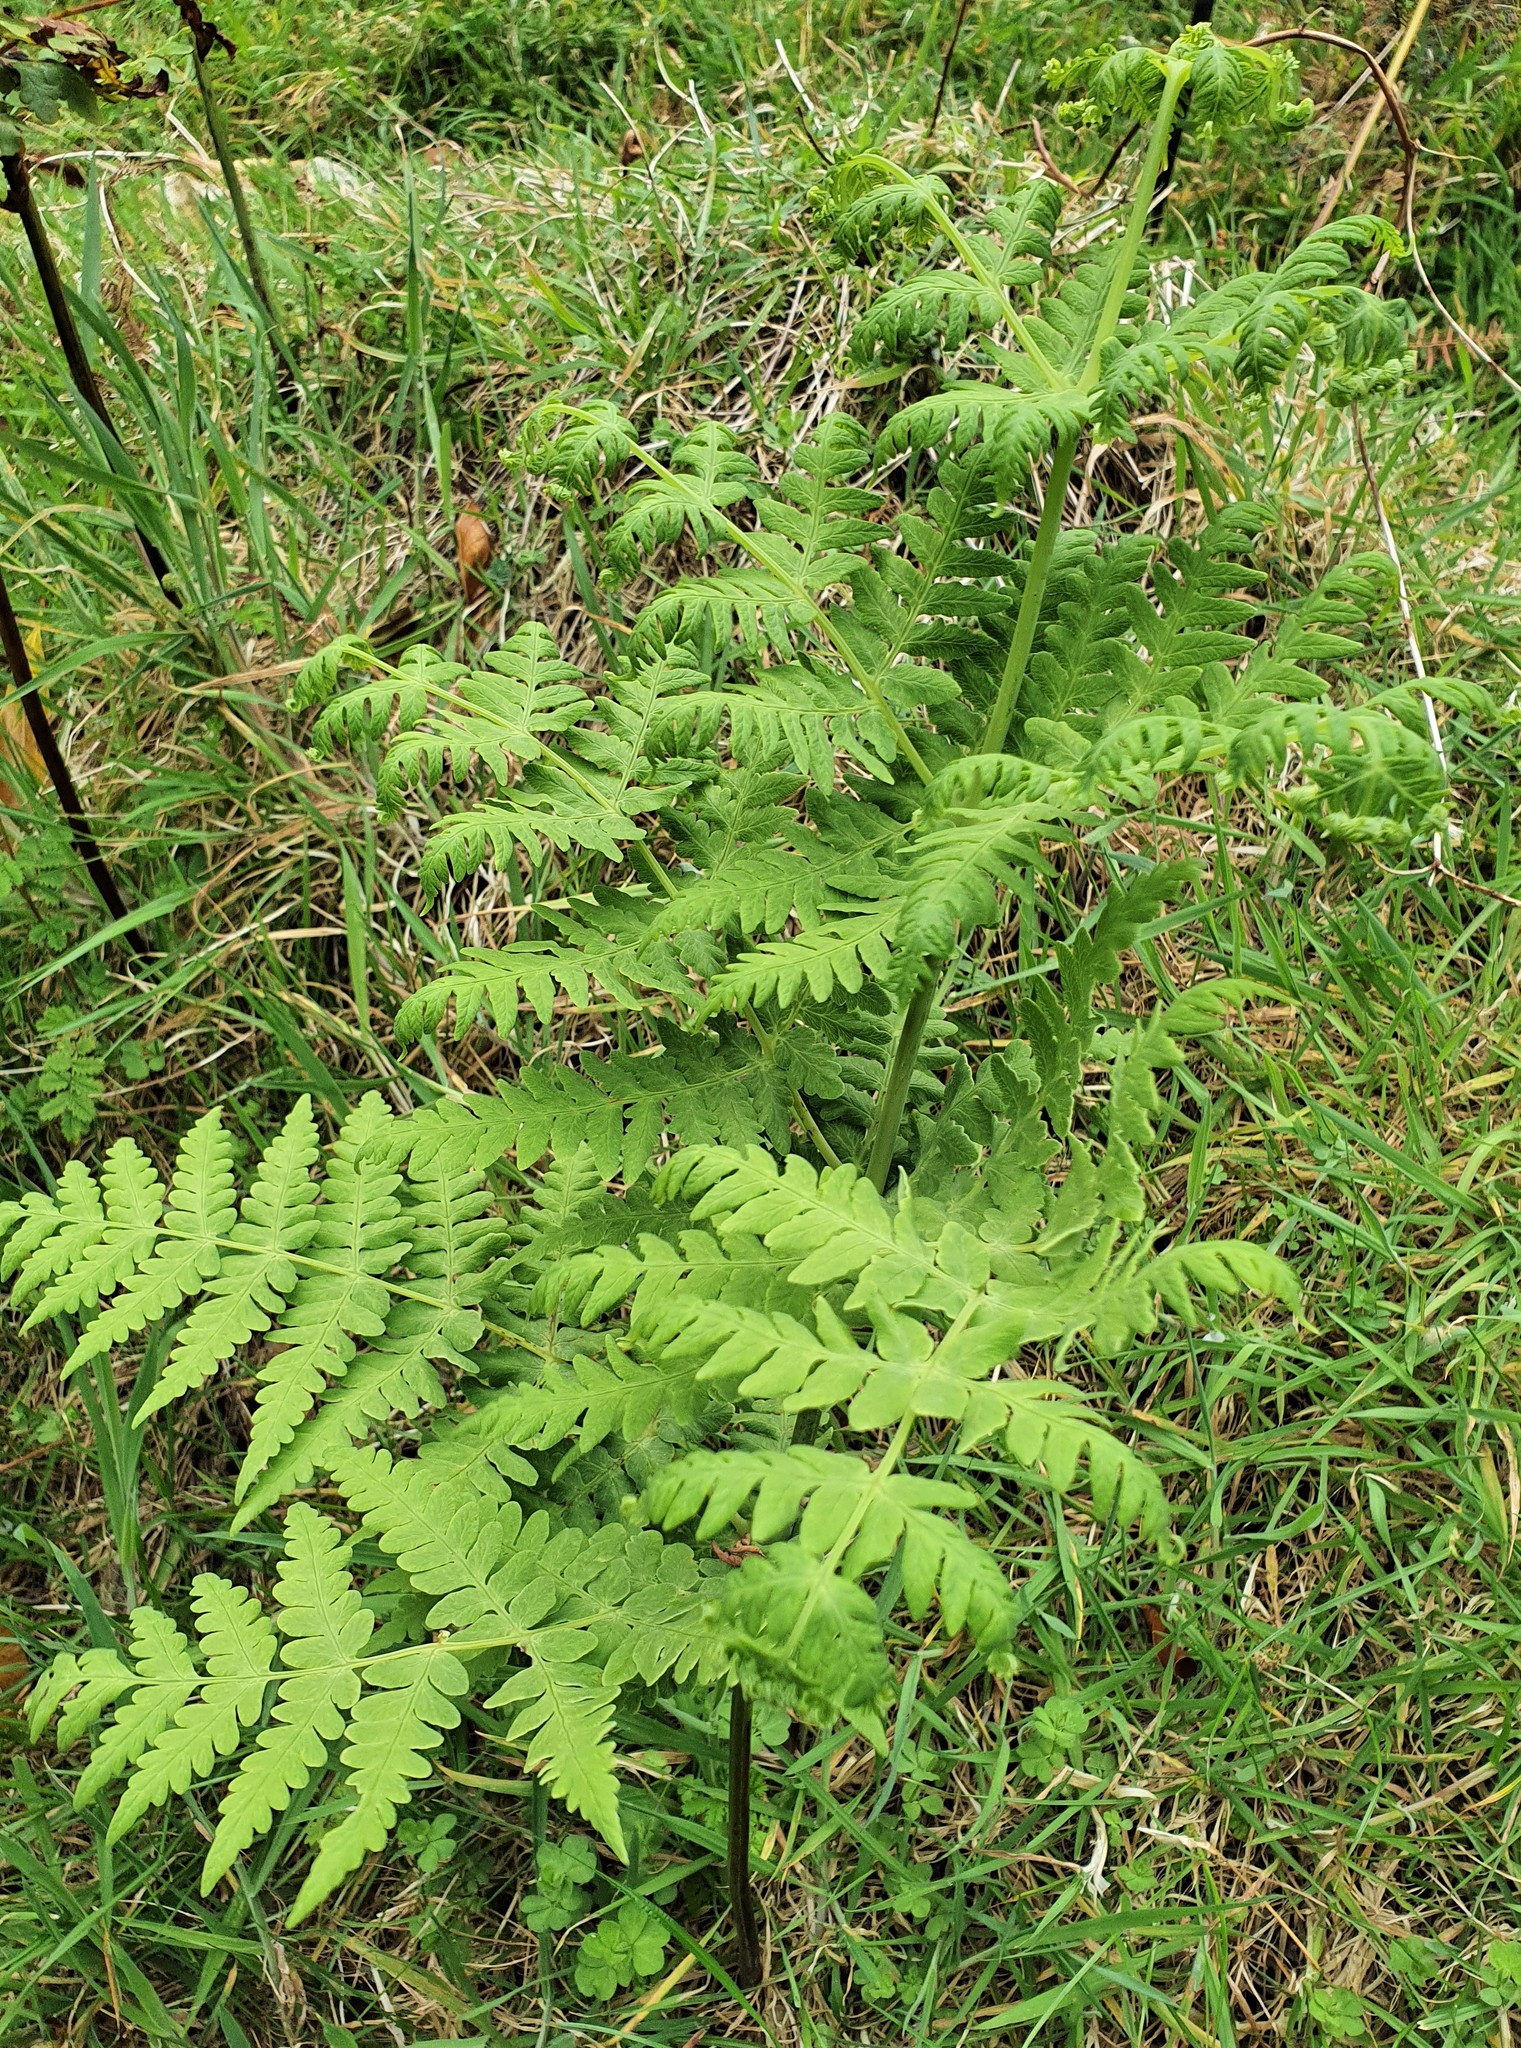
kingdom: Plantae
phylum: Tracheophyta
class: Polypodiopsida
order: Polypodiales
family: Dennstaedtiaceae
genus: Histiopteris
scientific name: Histiopteris incisa
